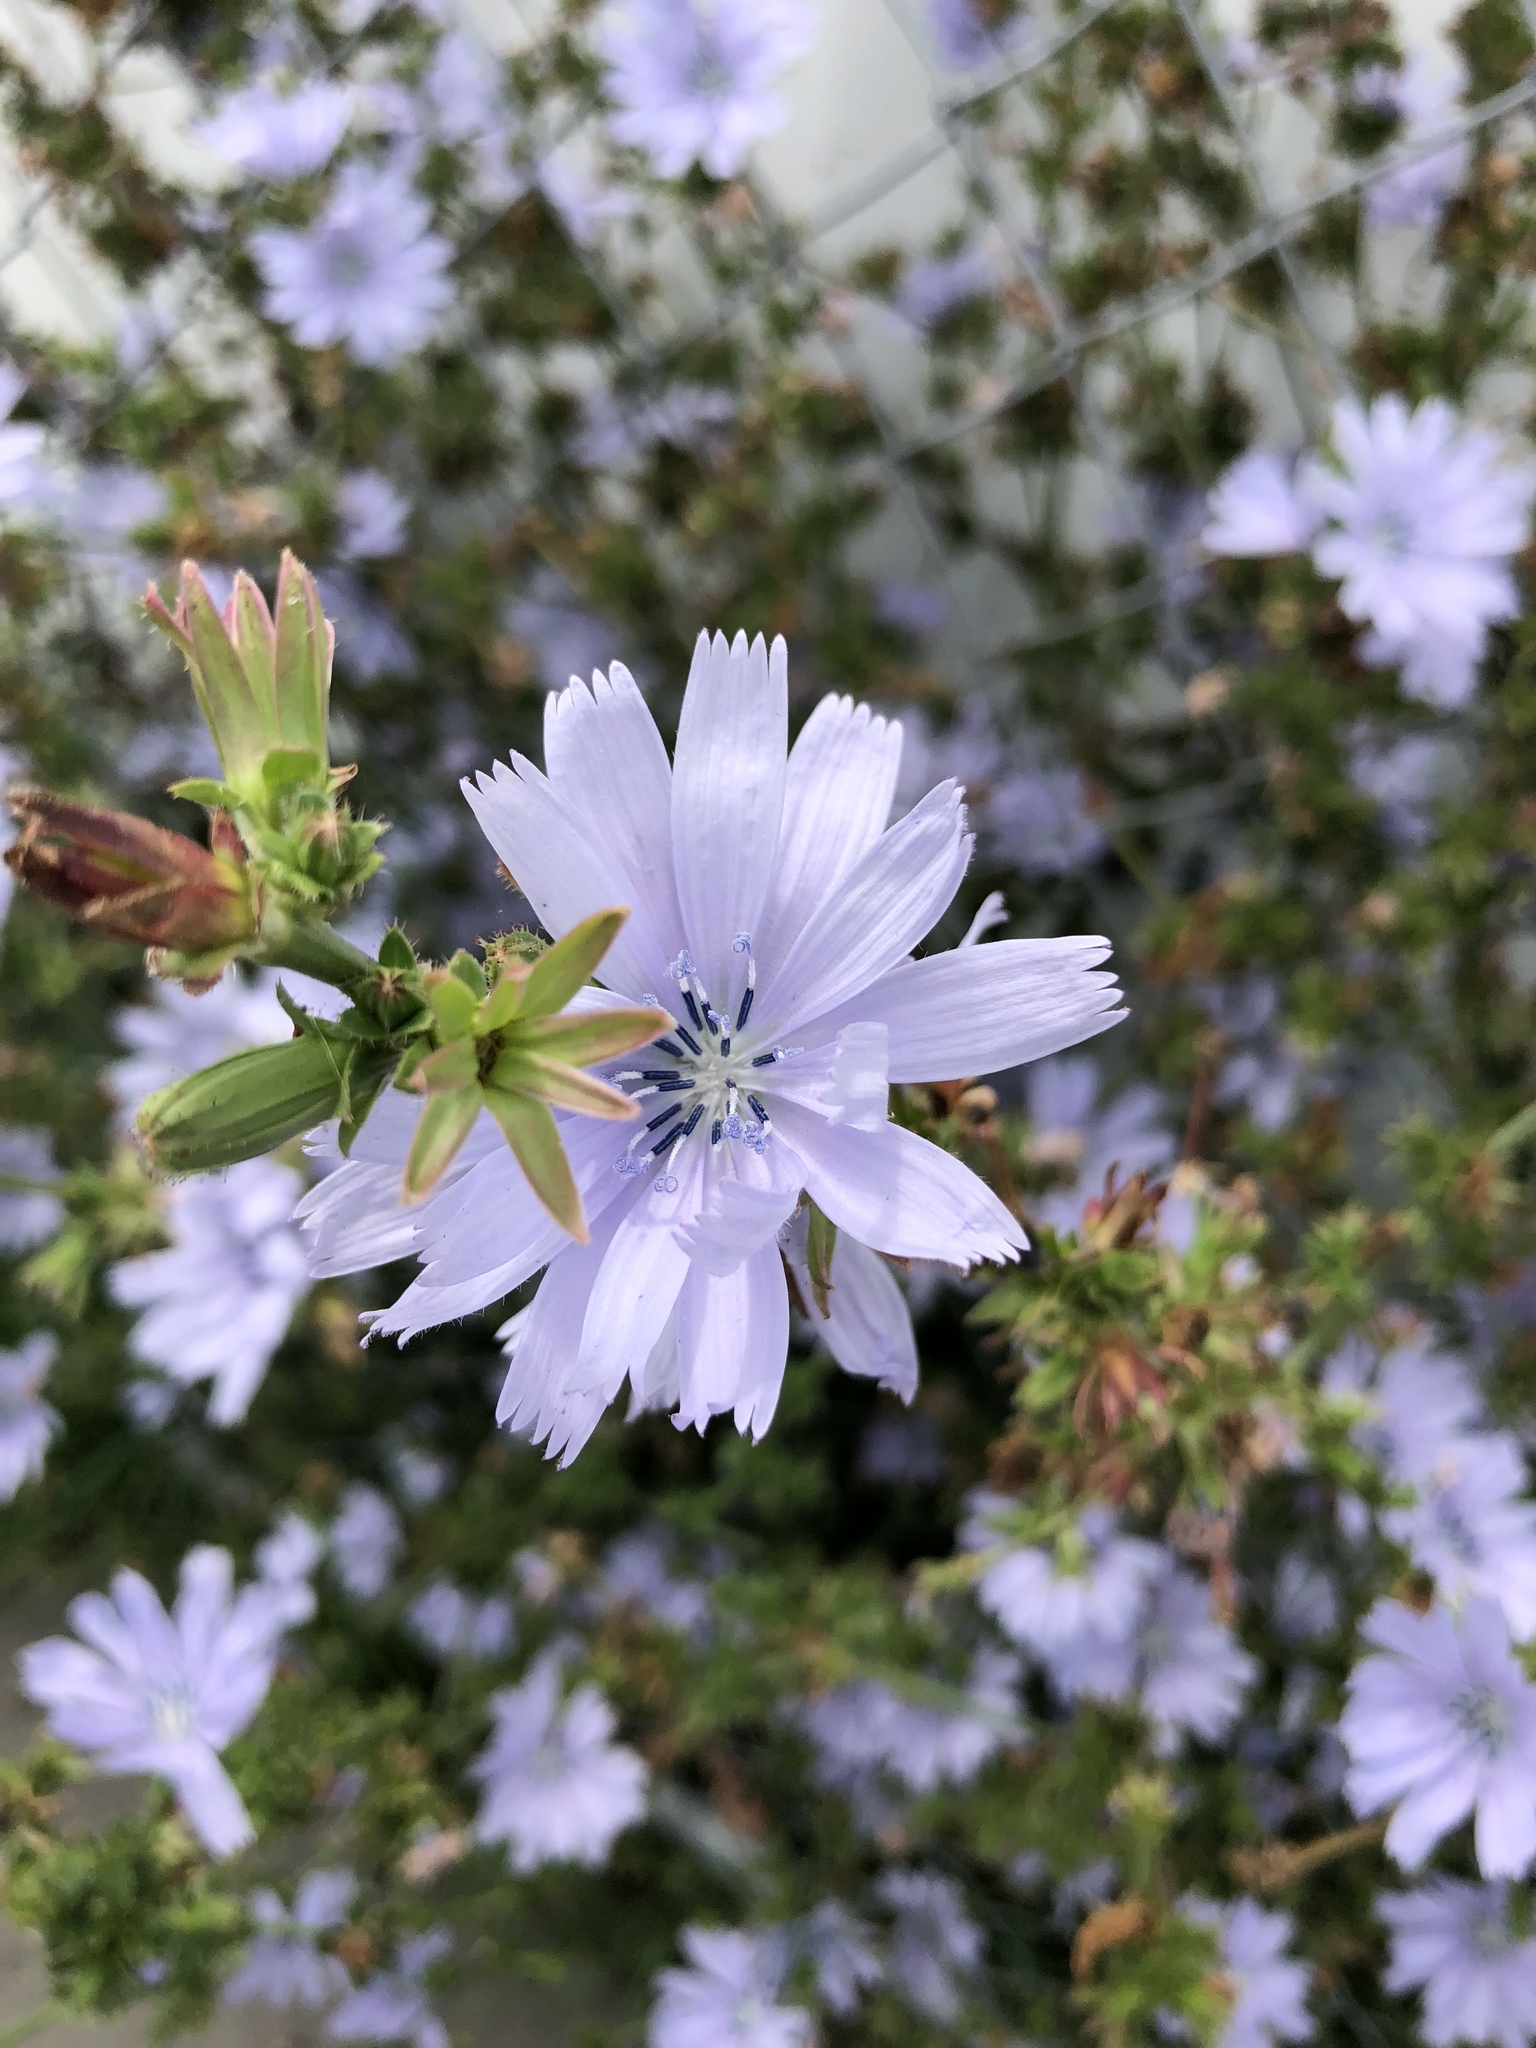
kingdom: Plantae
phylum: Tracheophyta
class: Magnoliopsida
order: Asterales
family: Asteraceae
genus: Cichorium
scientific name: Cichorium intybus
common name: Chicory
